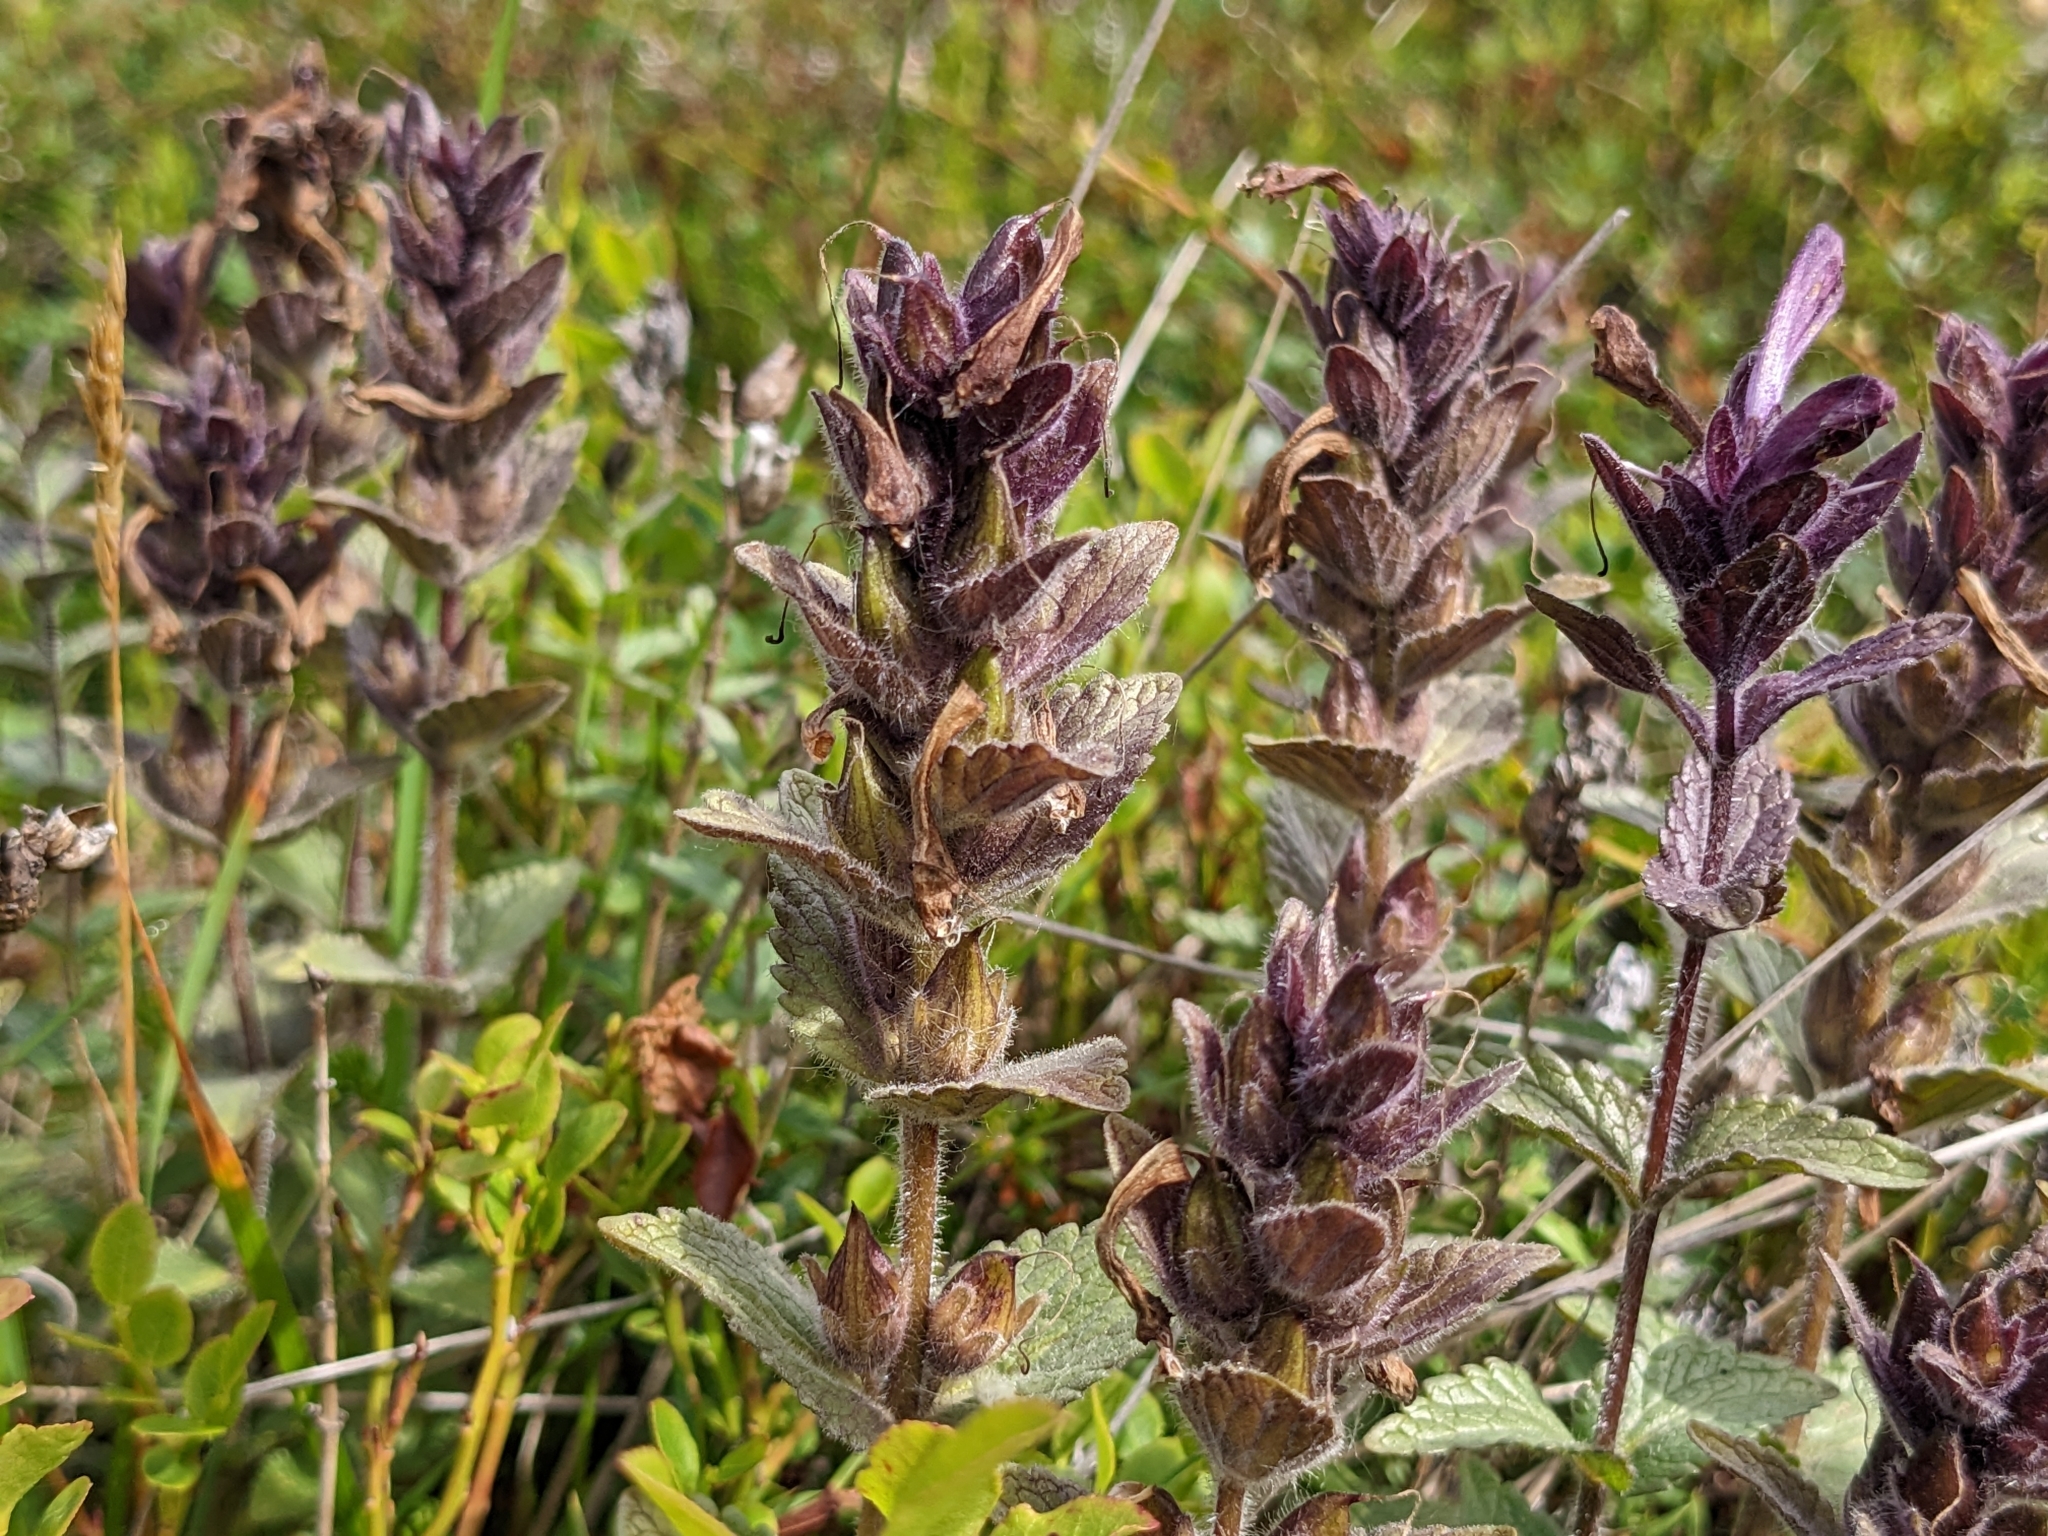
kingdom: Plantae
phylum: Tracheophyta
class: Magnoliopsida
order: Lamiales
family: Orobanchaceae
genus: Bartsia
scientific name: Bartsia alpina
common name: Alpine bartsia
